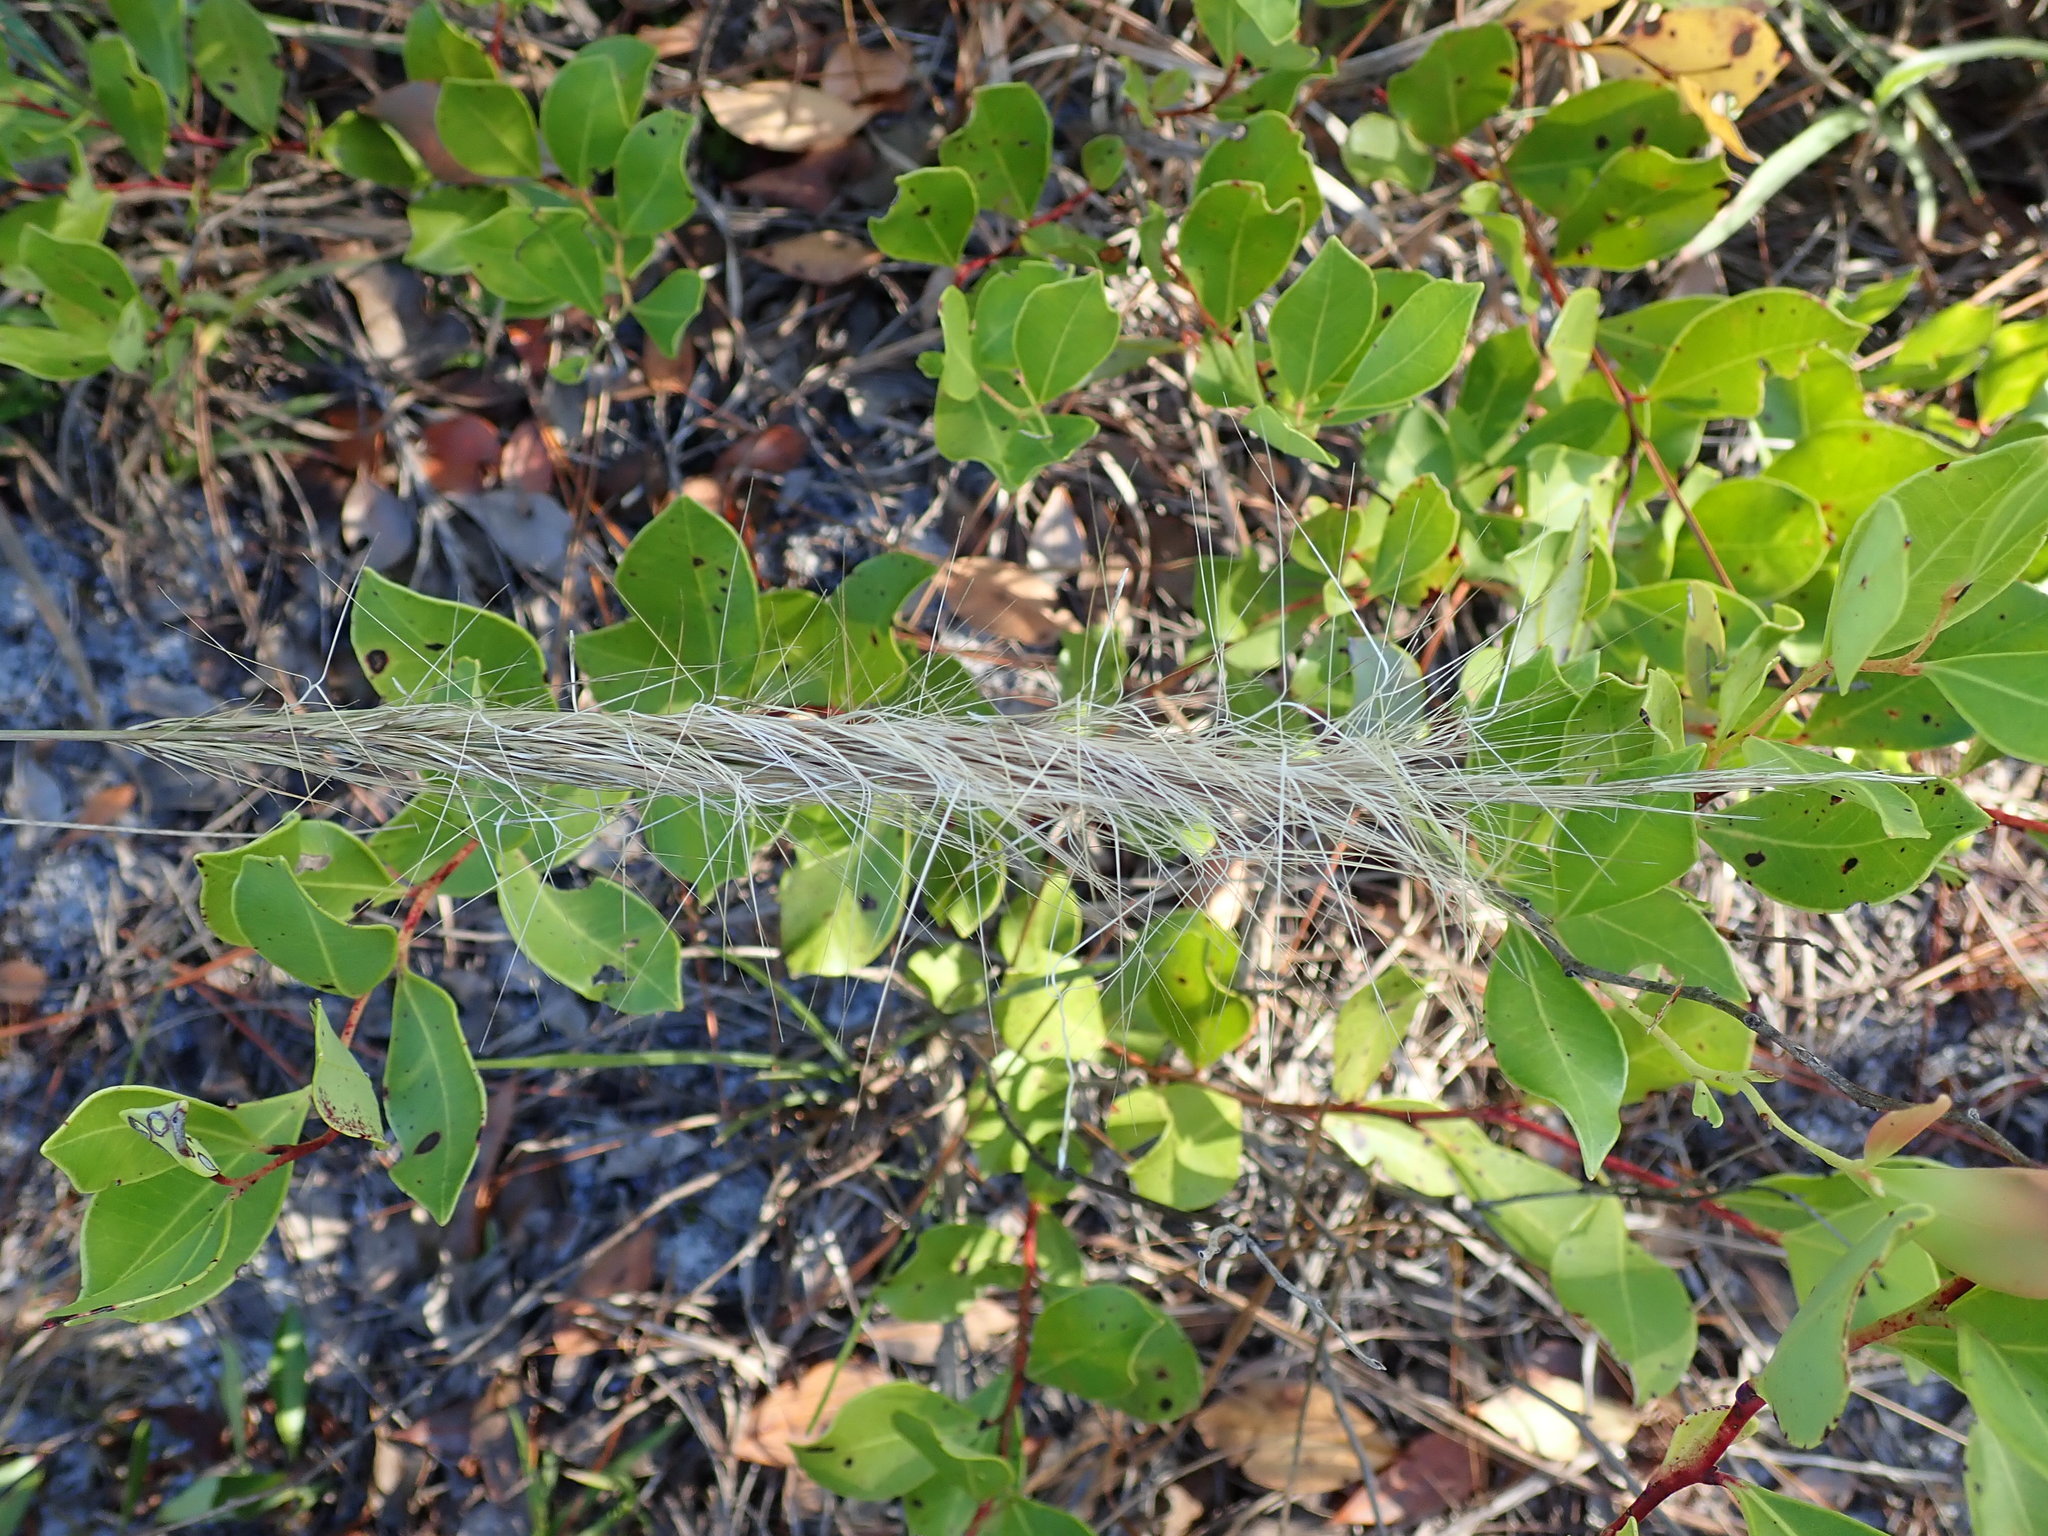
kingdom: Plantae
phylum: Tracheophyta
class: Liliopsida
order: Poales
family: Poaceae
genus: Aristida
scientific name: Aristida spiciformis
